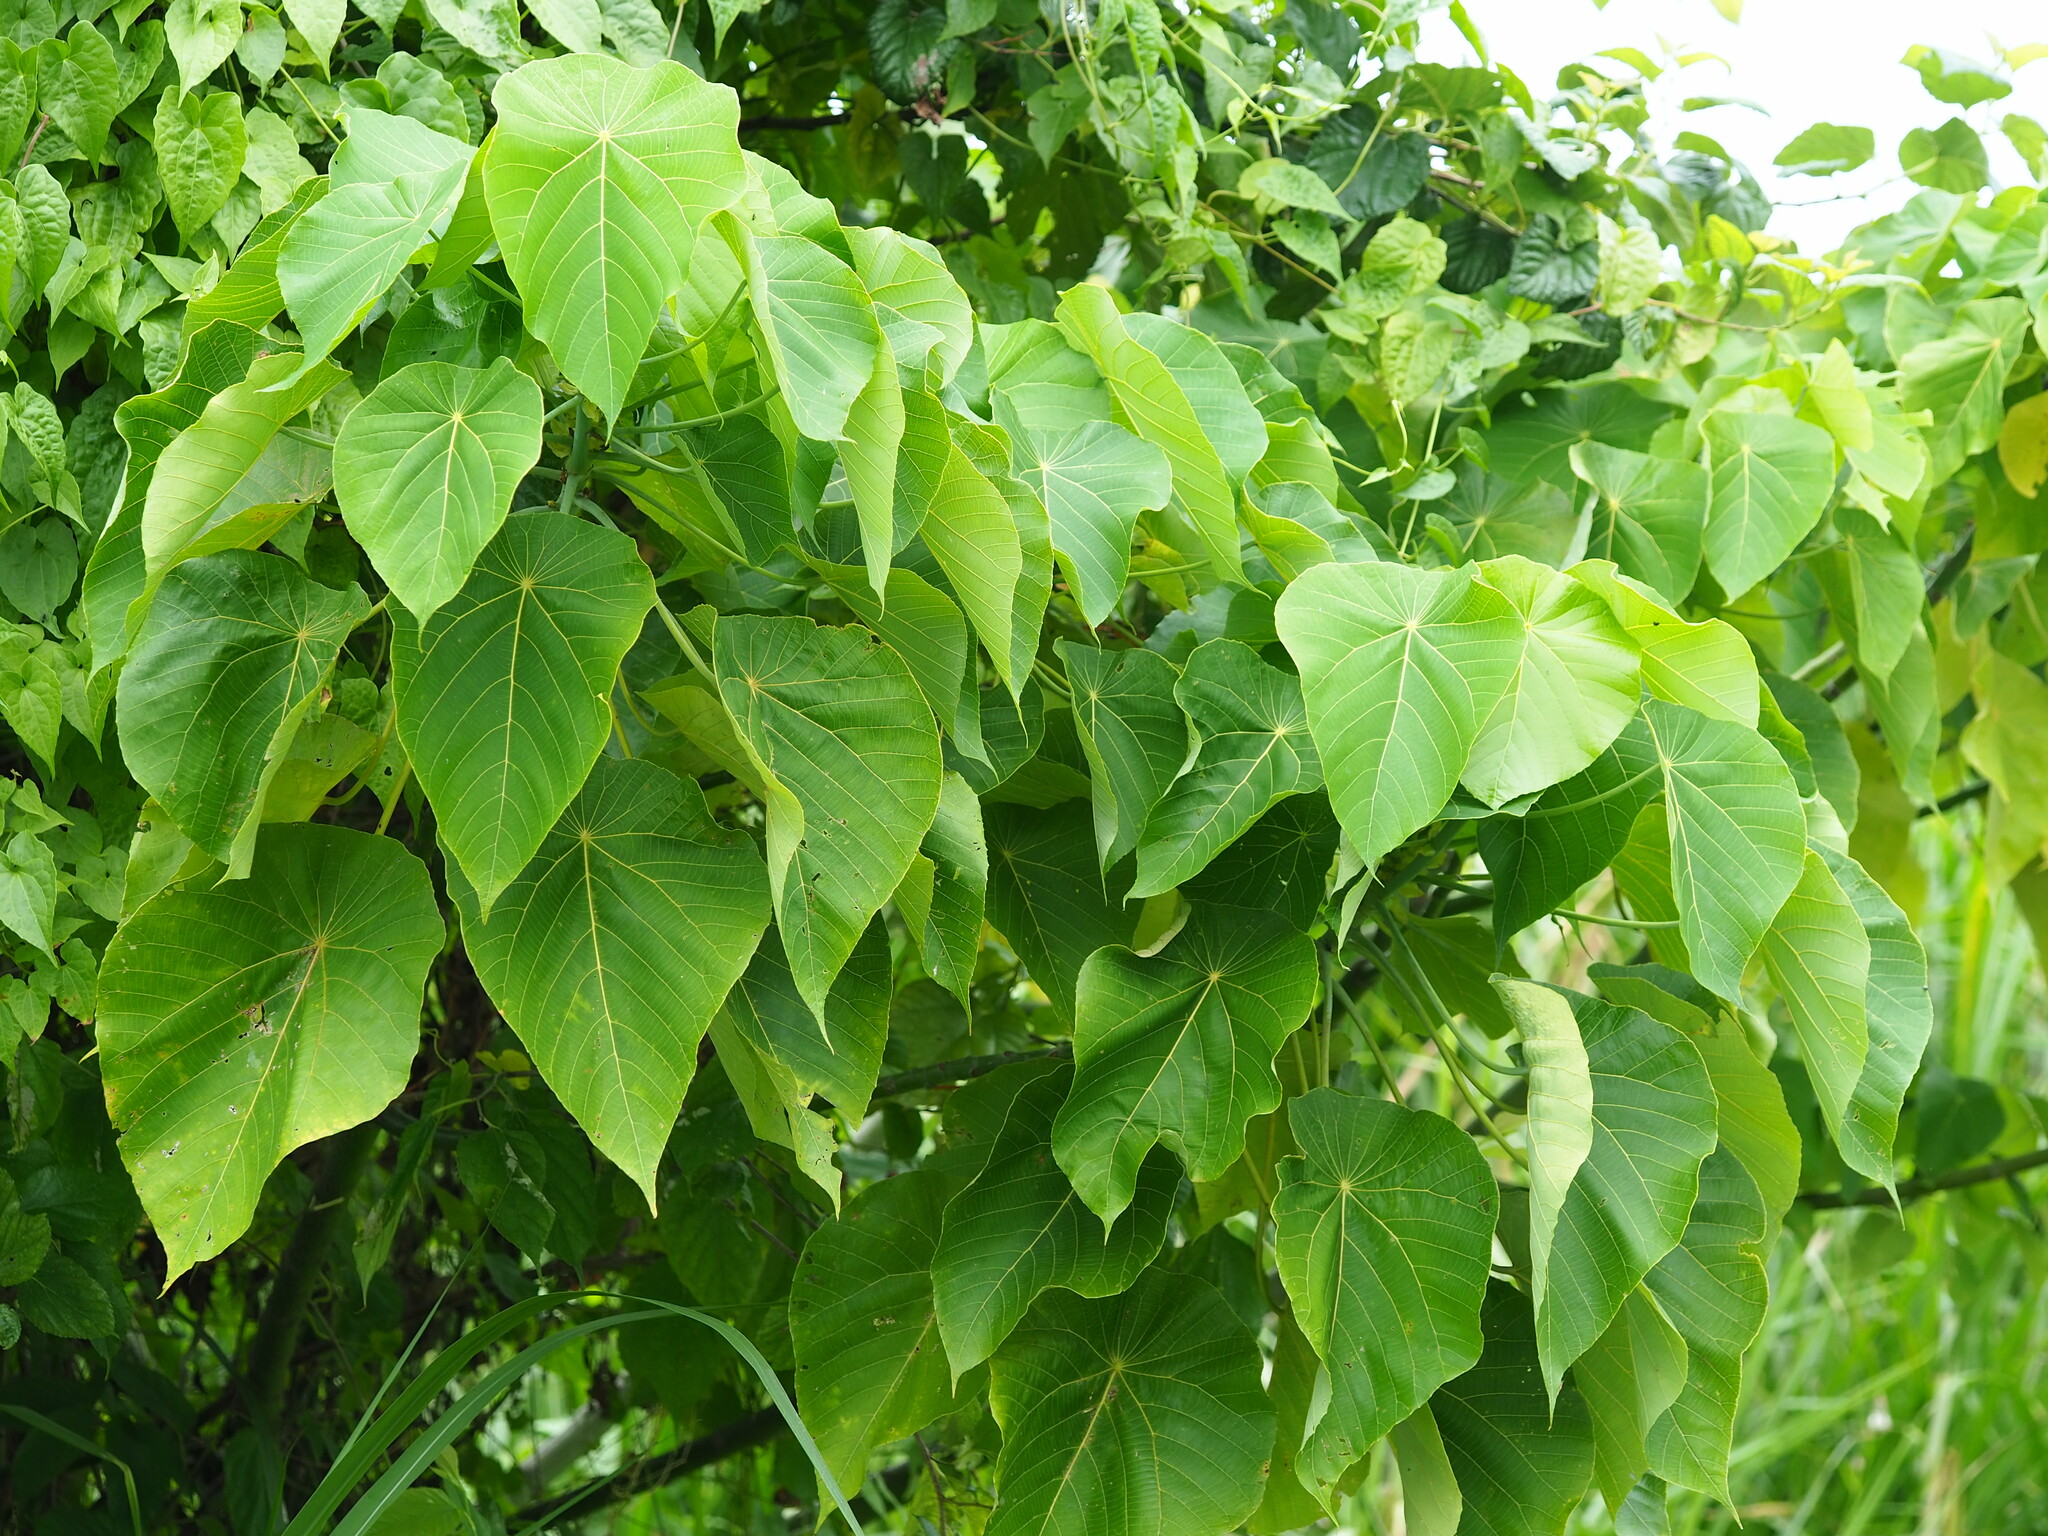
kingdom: Plantae
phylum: Tracheophyta
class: Magnoliopsida
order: Malpighiales
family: Euphorbiaceae
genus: Macaranga
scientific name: Macaranga tanarius
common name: Parasol leaf tree
